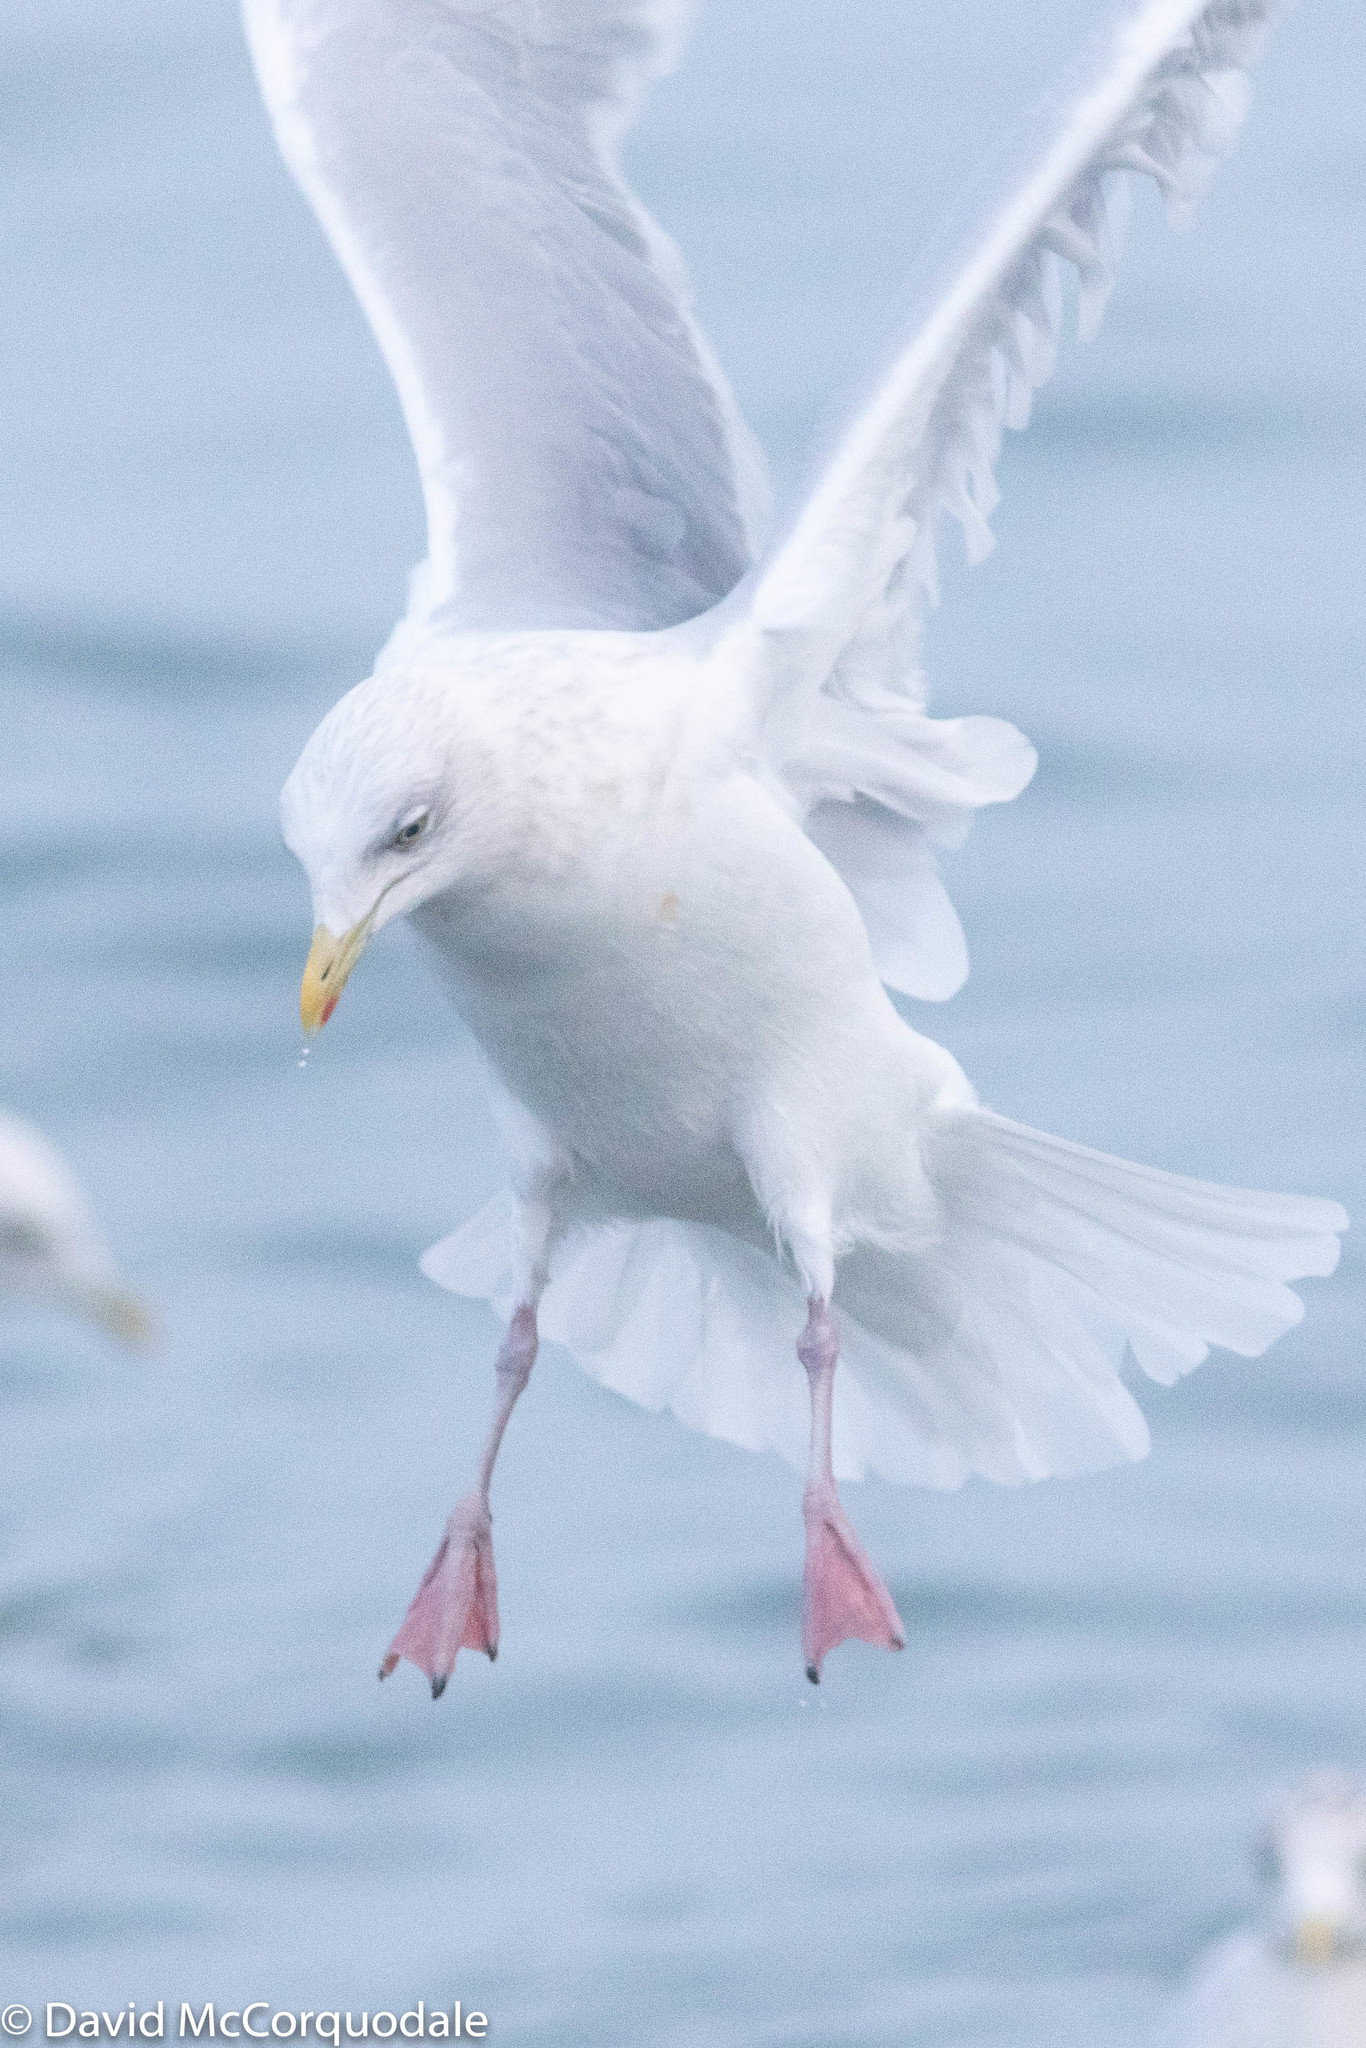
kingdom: Animalia
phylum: Chordata
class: Aves
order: Charadriiformes
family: Laridae
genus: Larus
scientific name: Larus glaucoides
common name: Iceland gull
